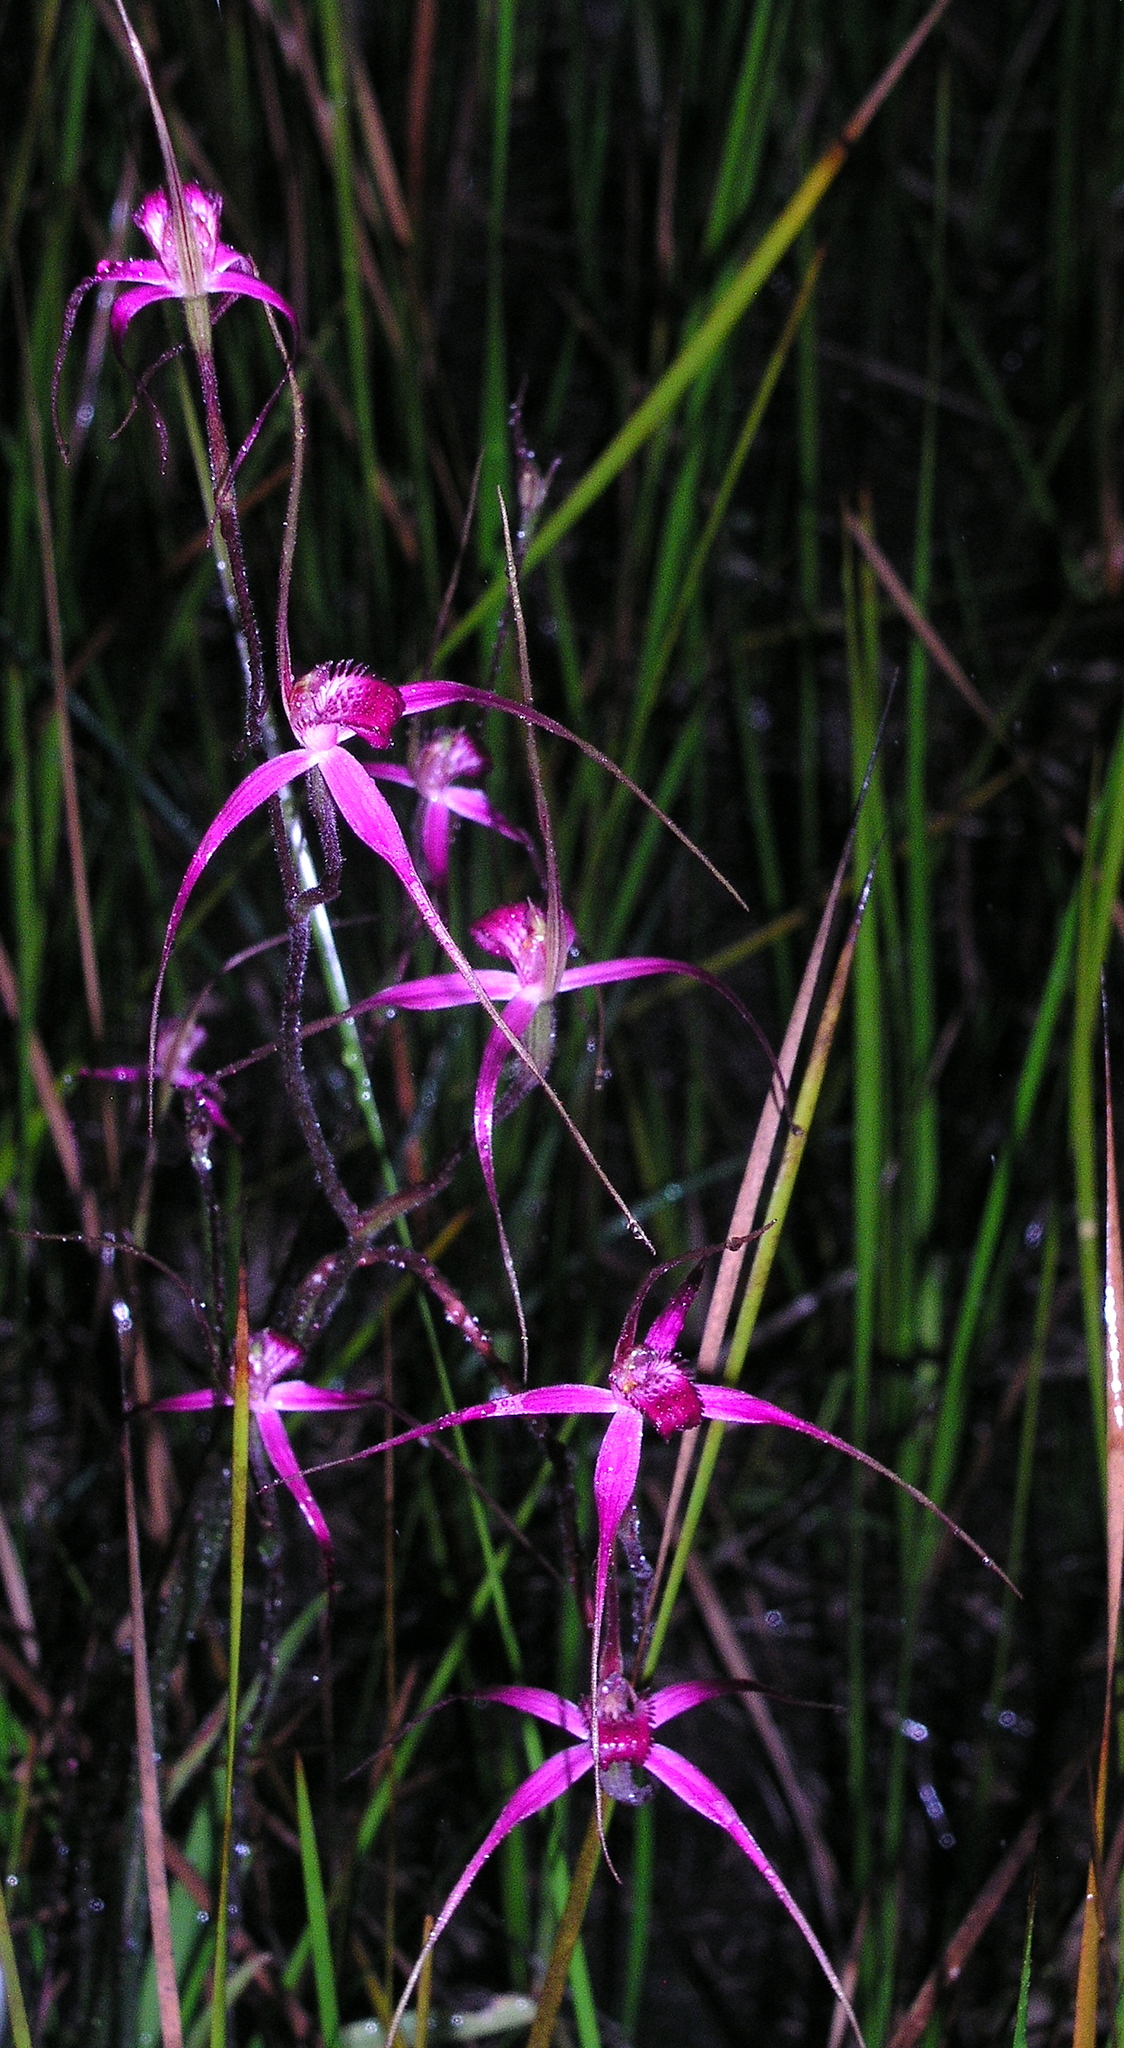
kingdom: Plantae
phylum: Tracheophyta
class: Liliopsida
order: Asparagales
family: Orchidaceae
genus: Caladenia
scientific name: Caladenia harringtoniae
